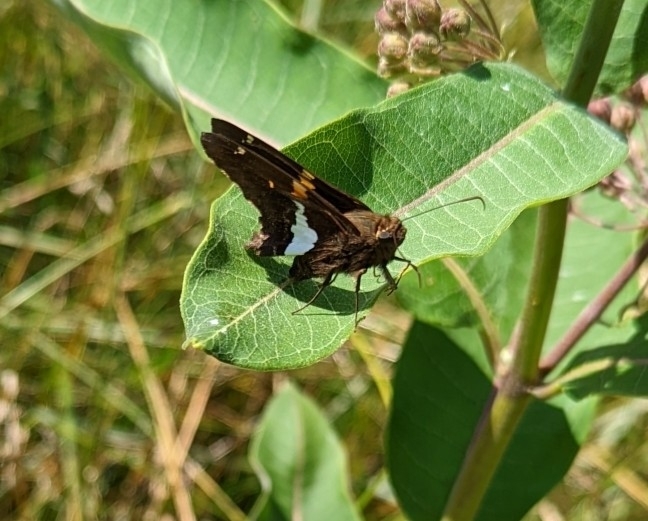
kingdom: Animalia
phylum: Arthropoda
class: Insecta
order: Lepidoptera
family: Hesperiidae
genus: Epargyreus
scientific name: Epargyreus clarus
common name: Silver-spotted skipper
